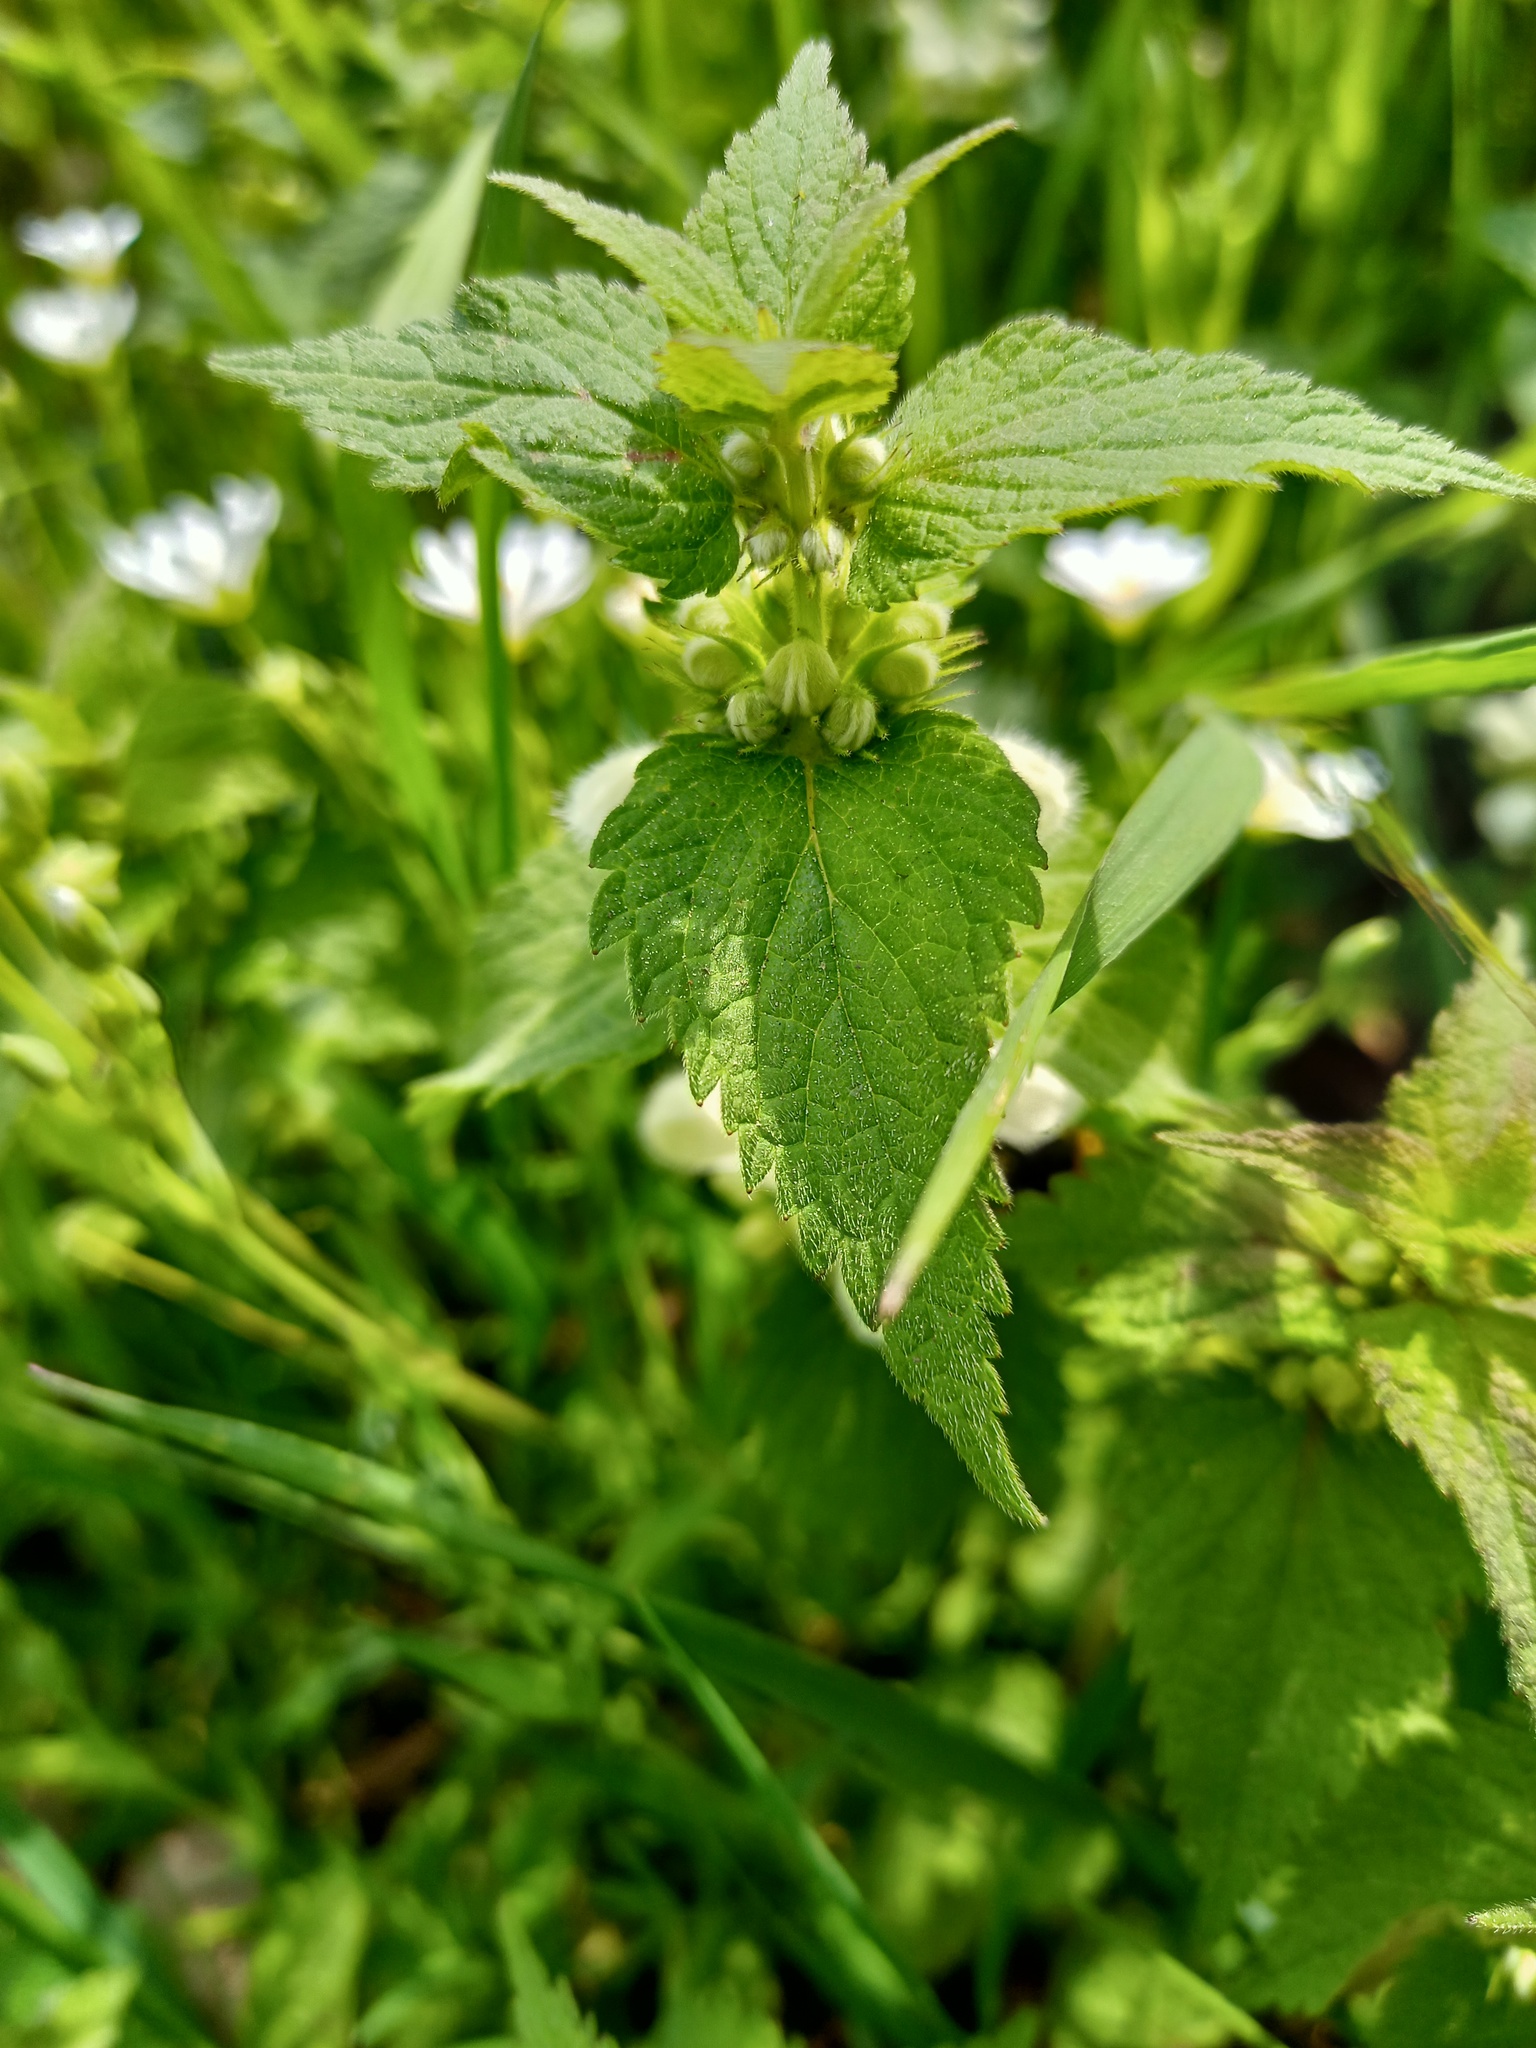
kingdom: Plantae
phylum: Tracheophyta
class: Magnoliopsida
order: Lamiales
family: Lamiaceae
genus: Lamium
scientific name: Lamium album
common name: White dead-nettle
